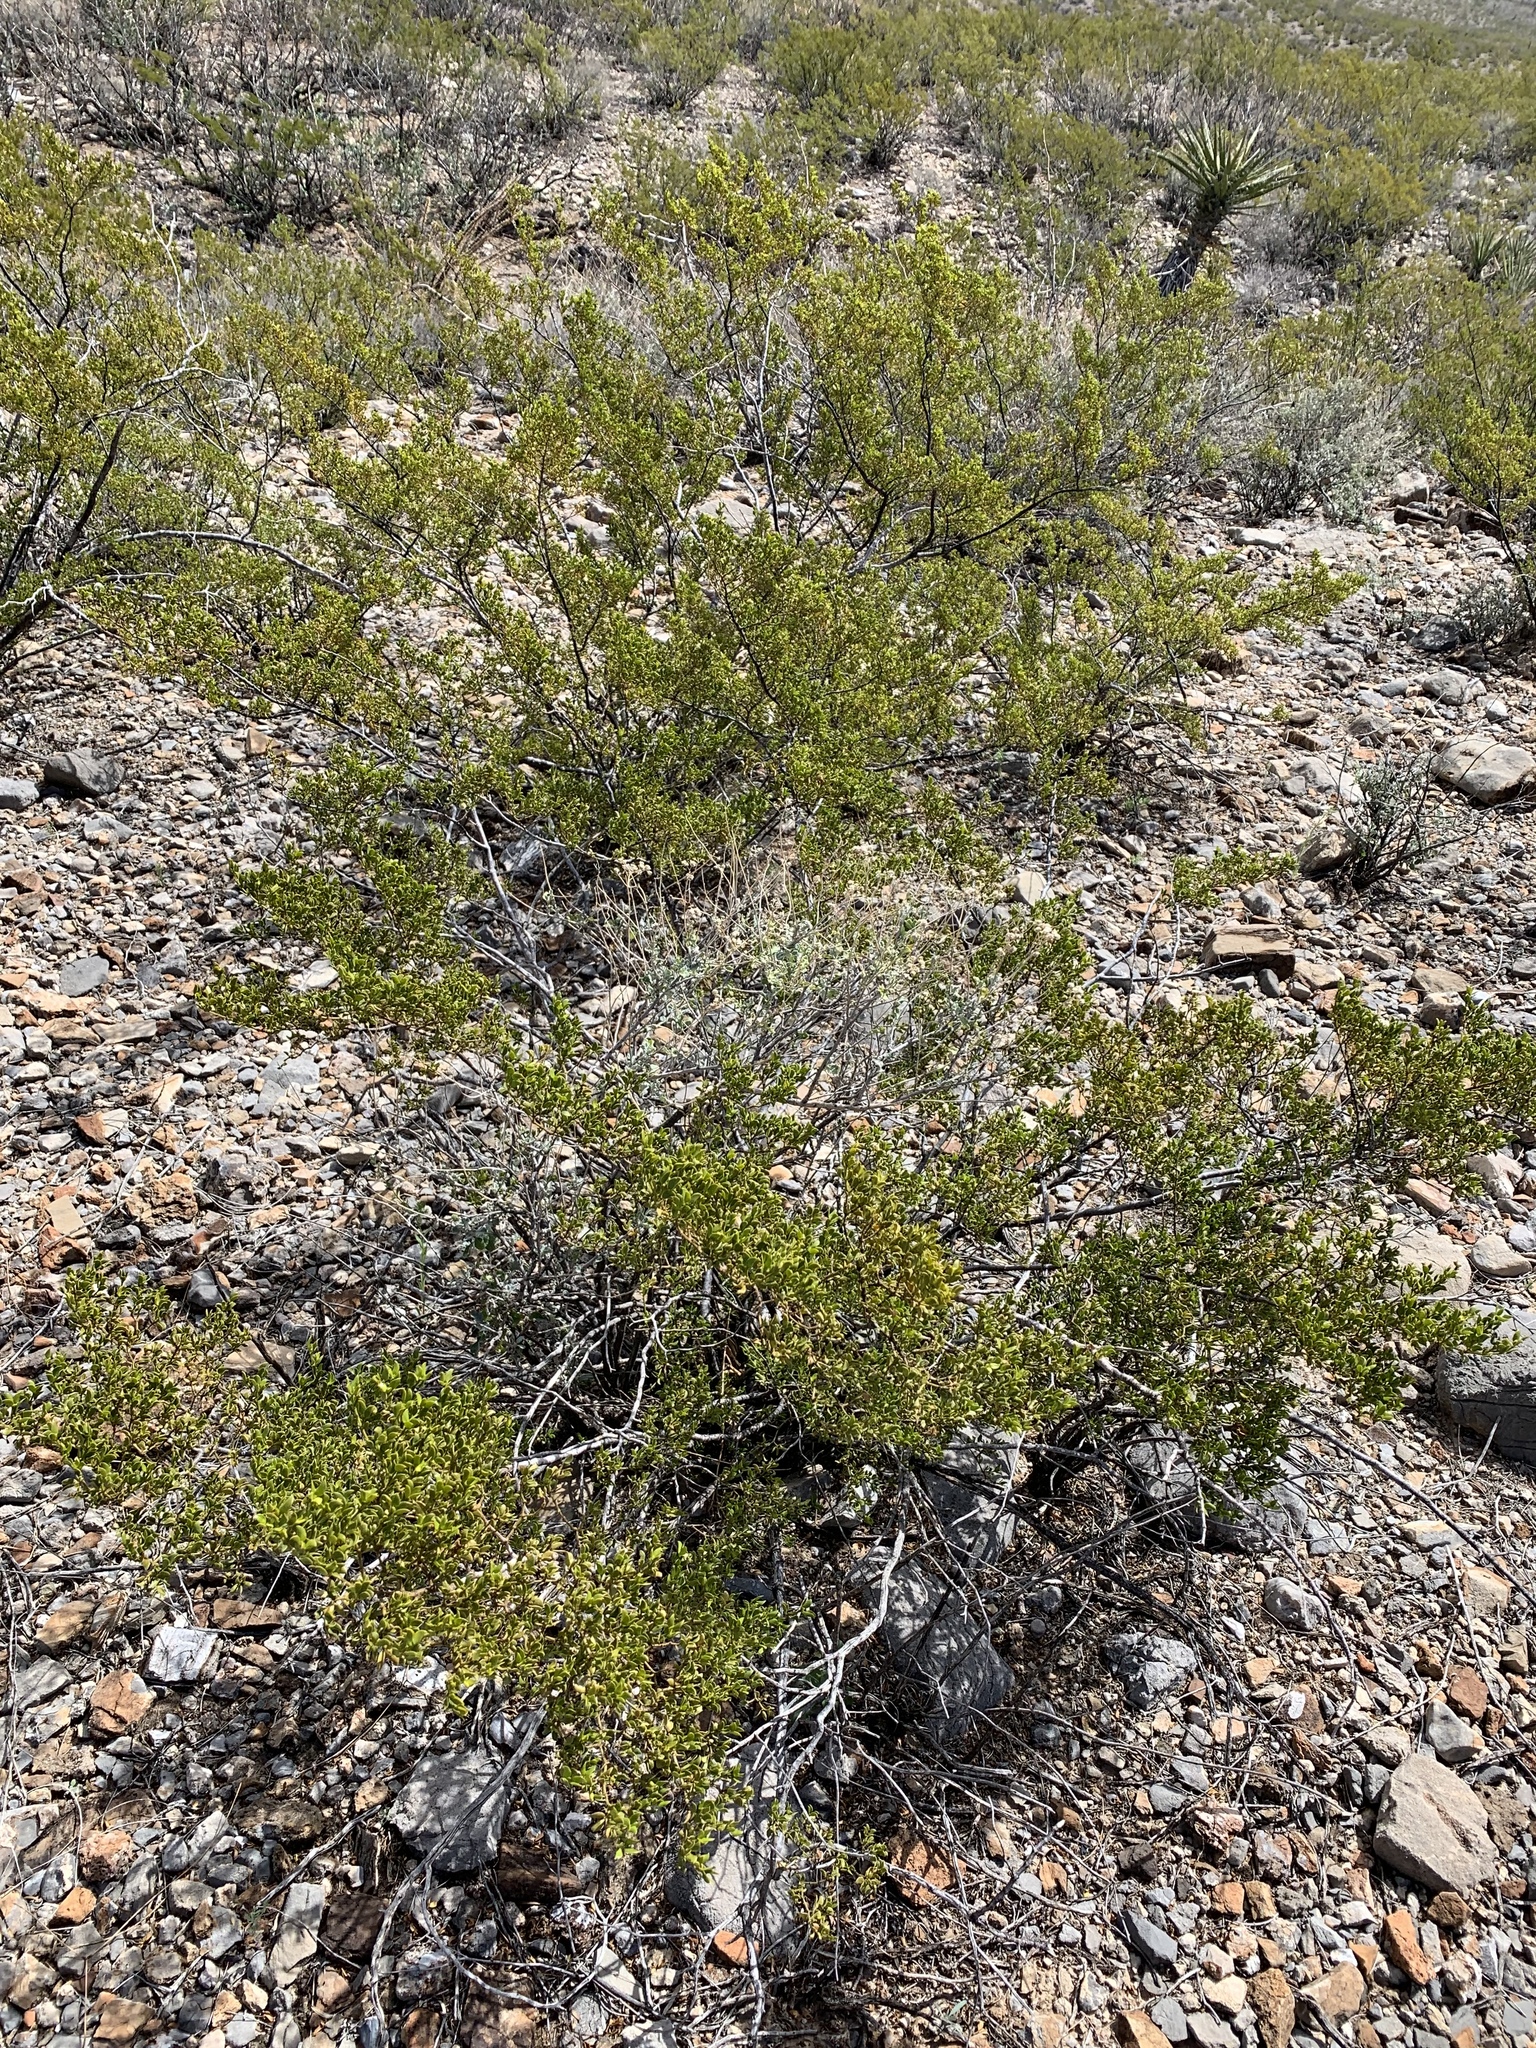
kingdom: Plantae
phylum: Tracheophyta
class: Magnoliopsida
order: Zygophyllales
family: Zygophyllaceae
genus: Larrea
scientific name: Larrea tridentata
